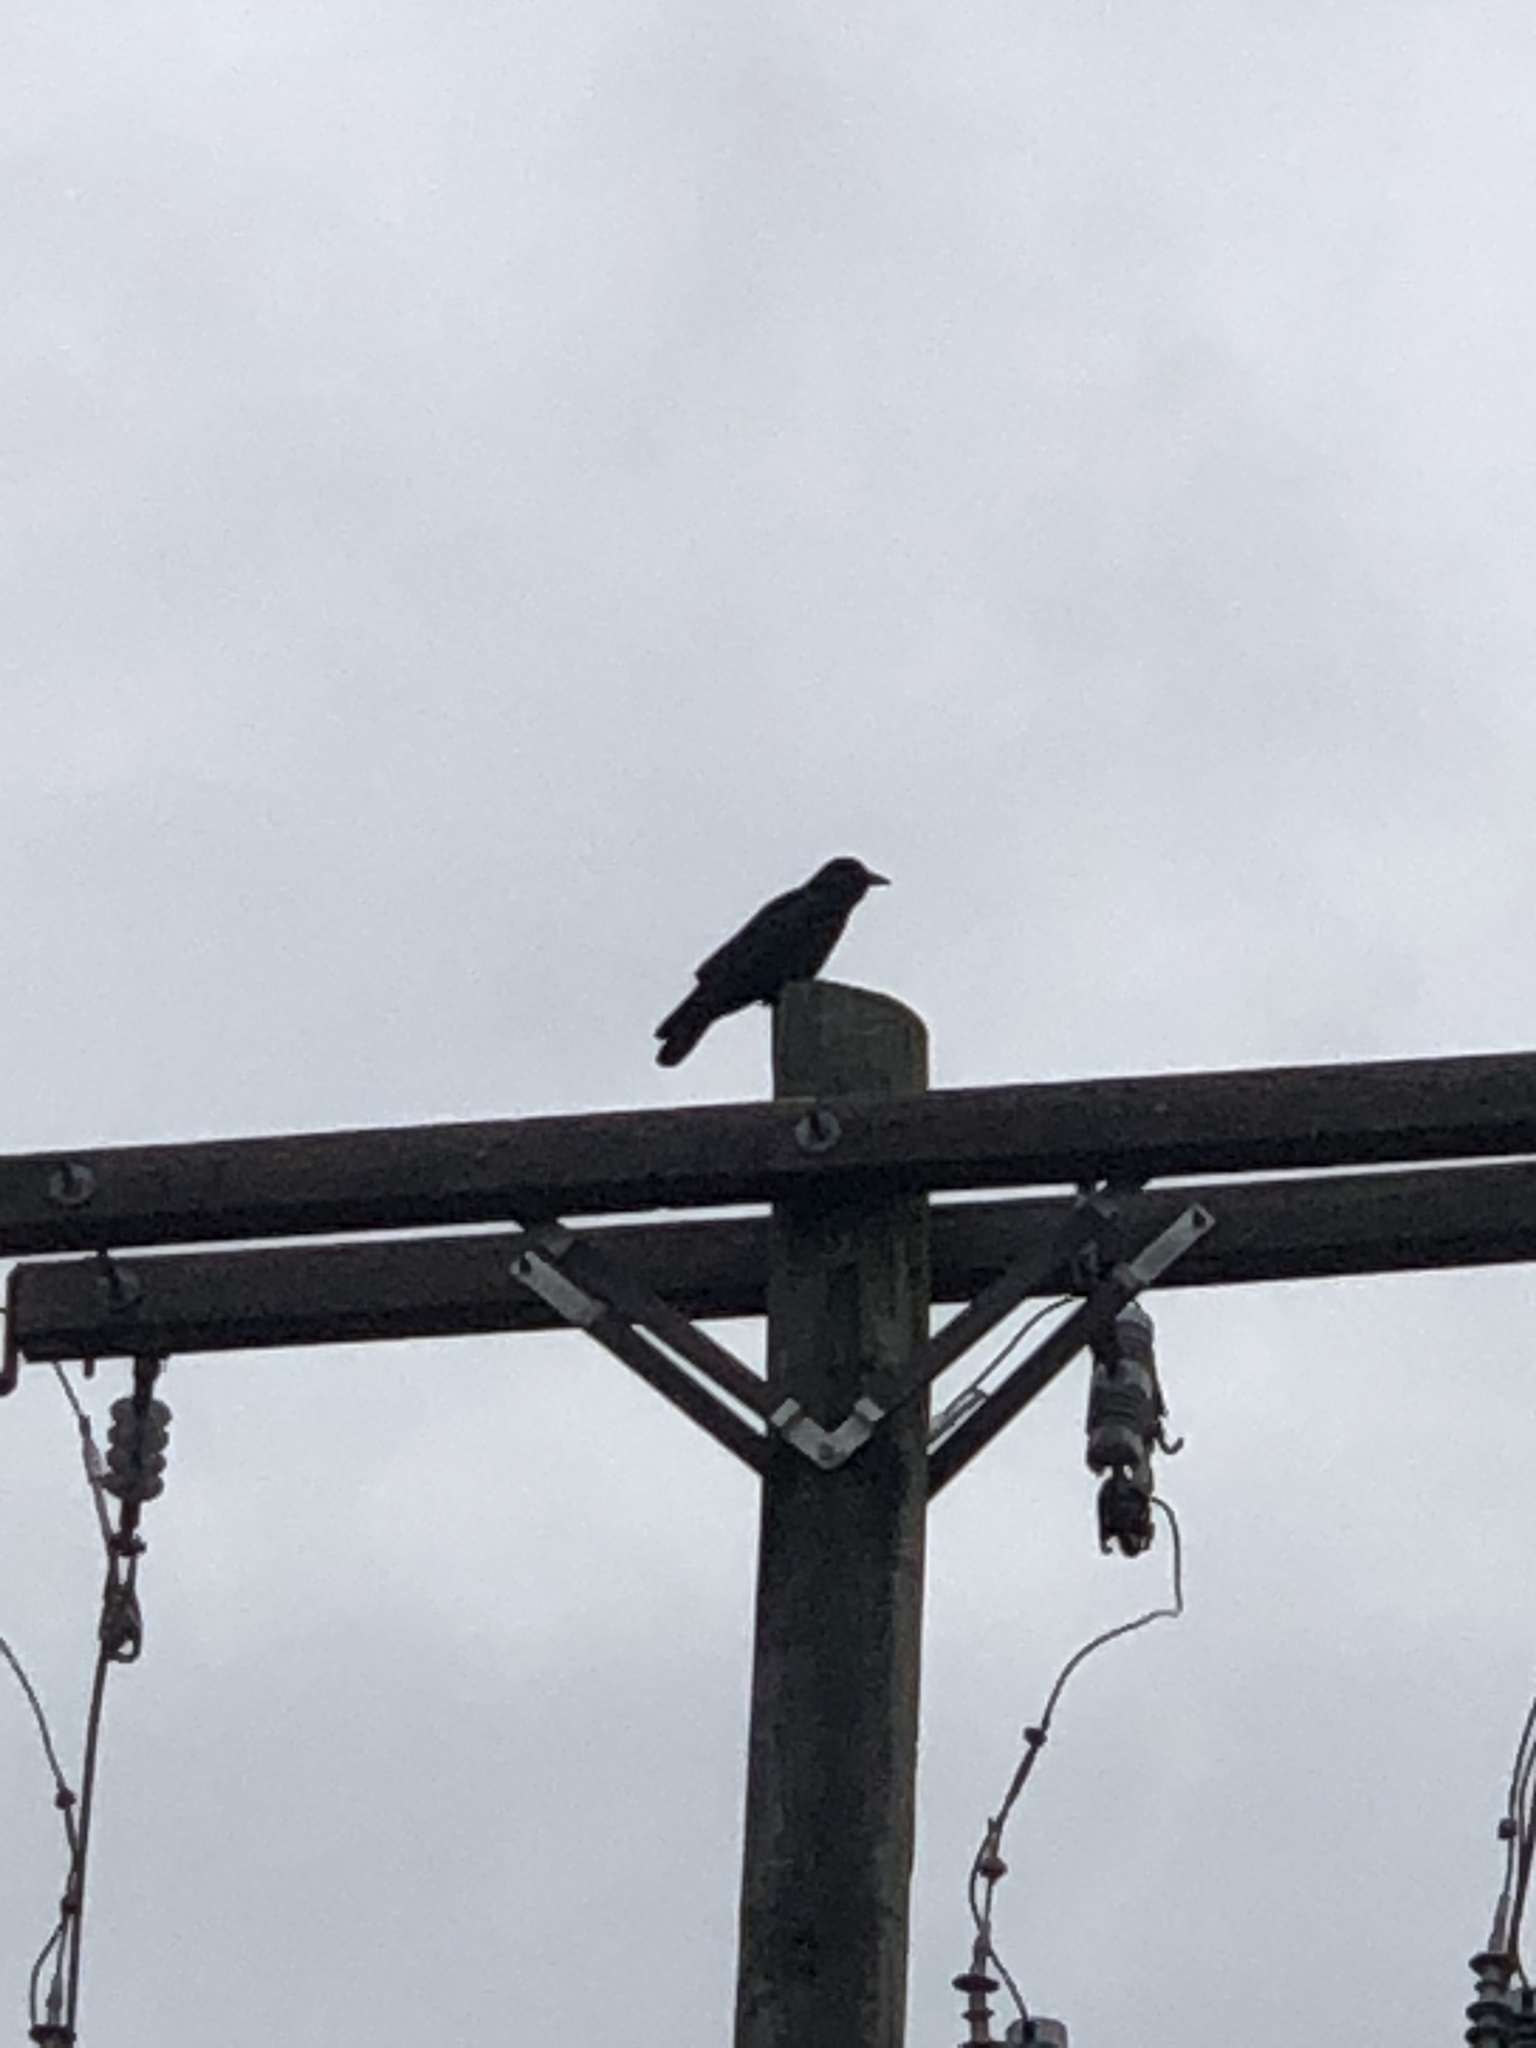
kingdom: Animalia
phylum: Chordata
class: Aves
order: Passeriformes
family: Corvidae
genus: Corvus
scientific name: Corvus brachyrhynchos
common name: American crow
